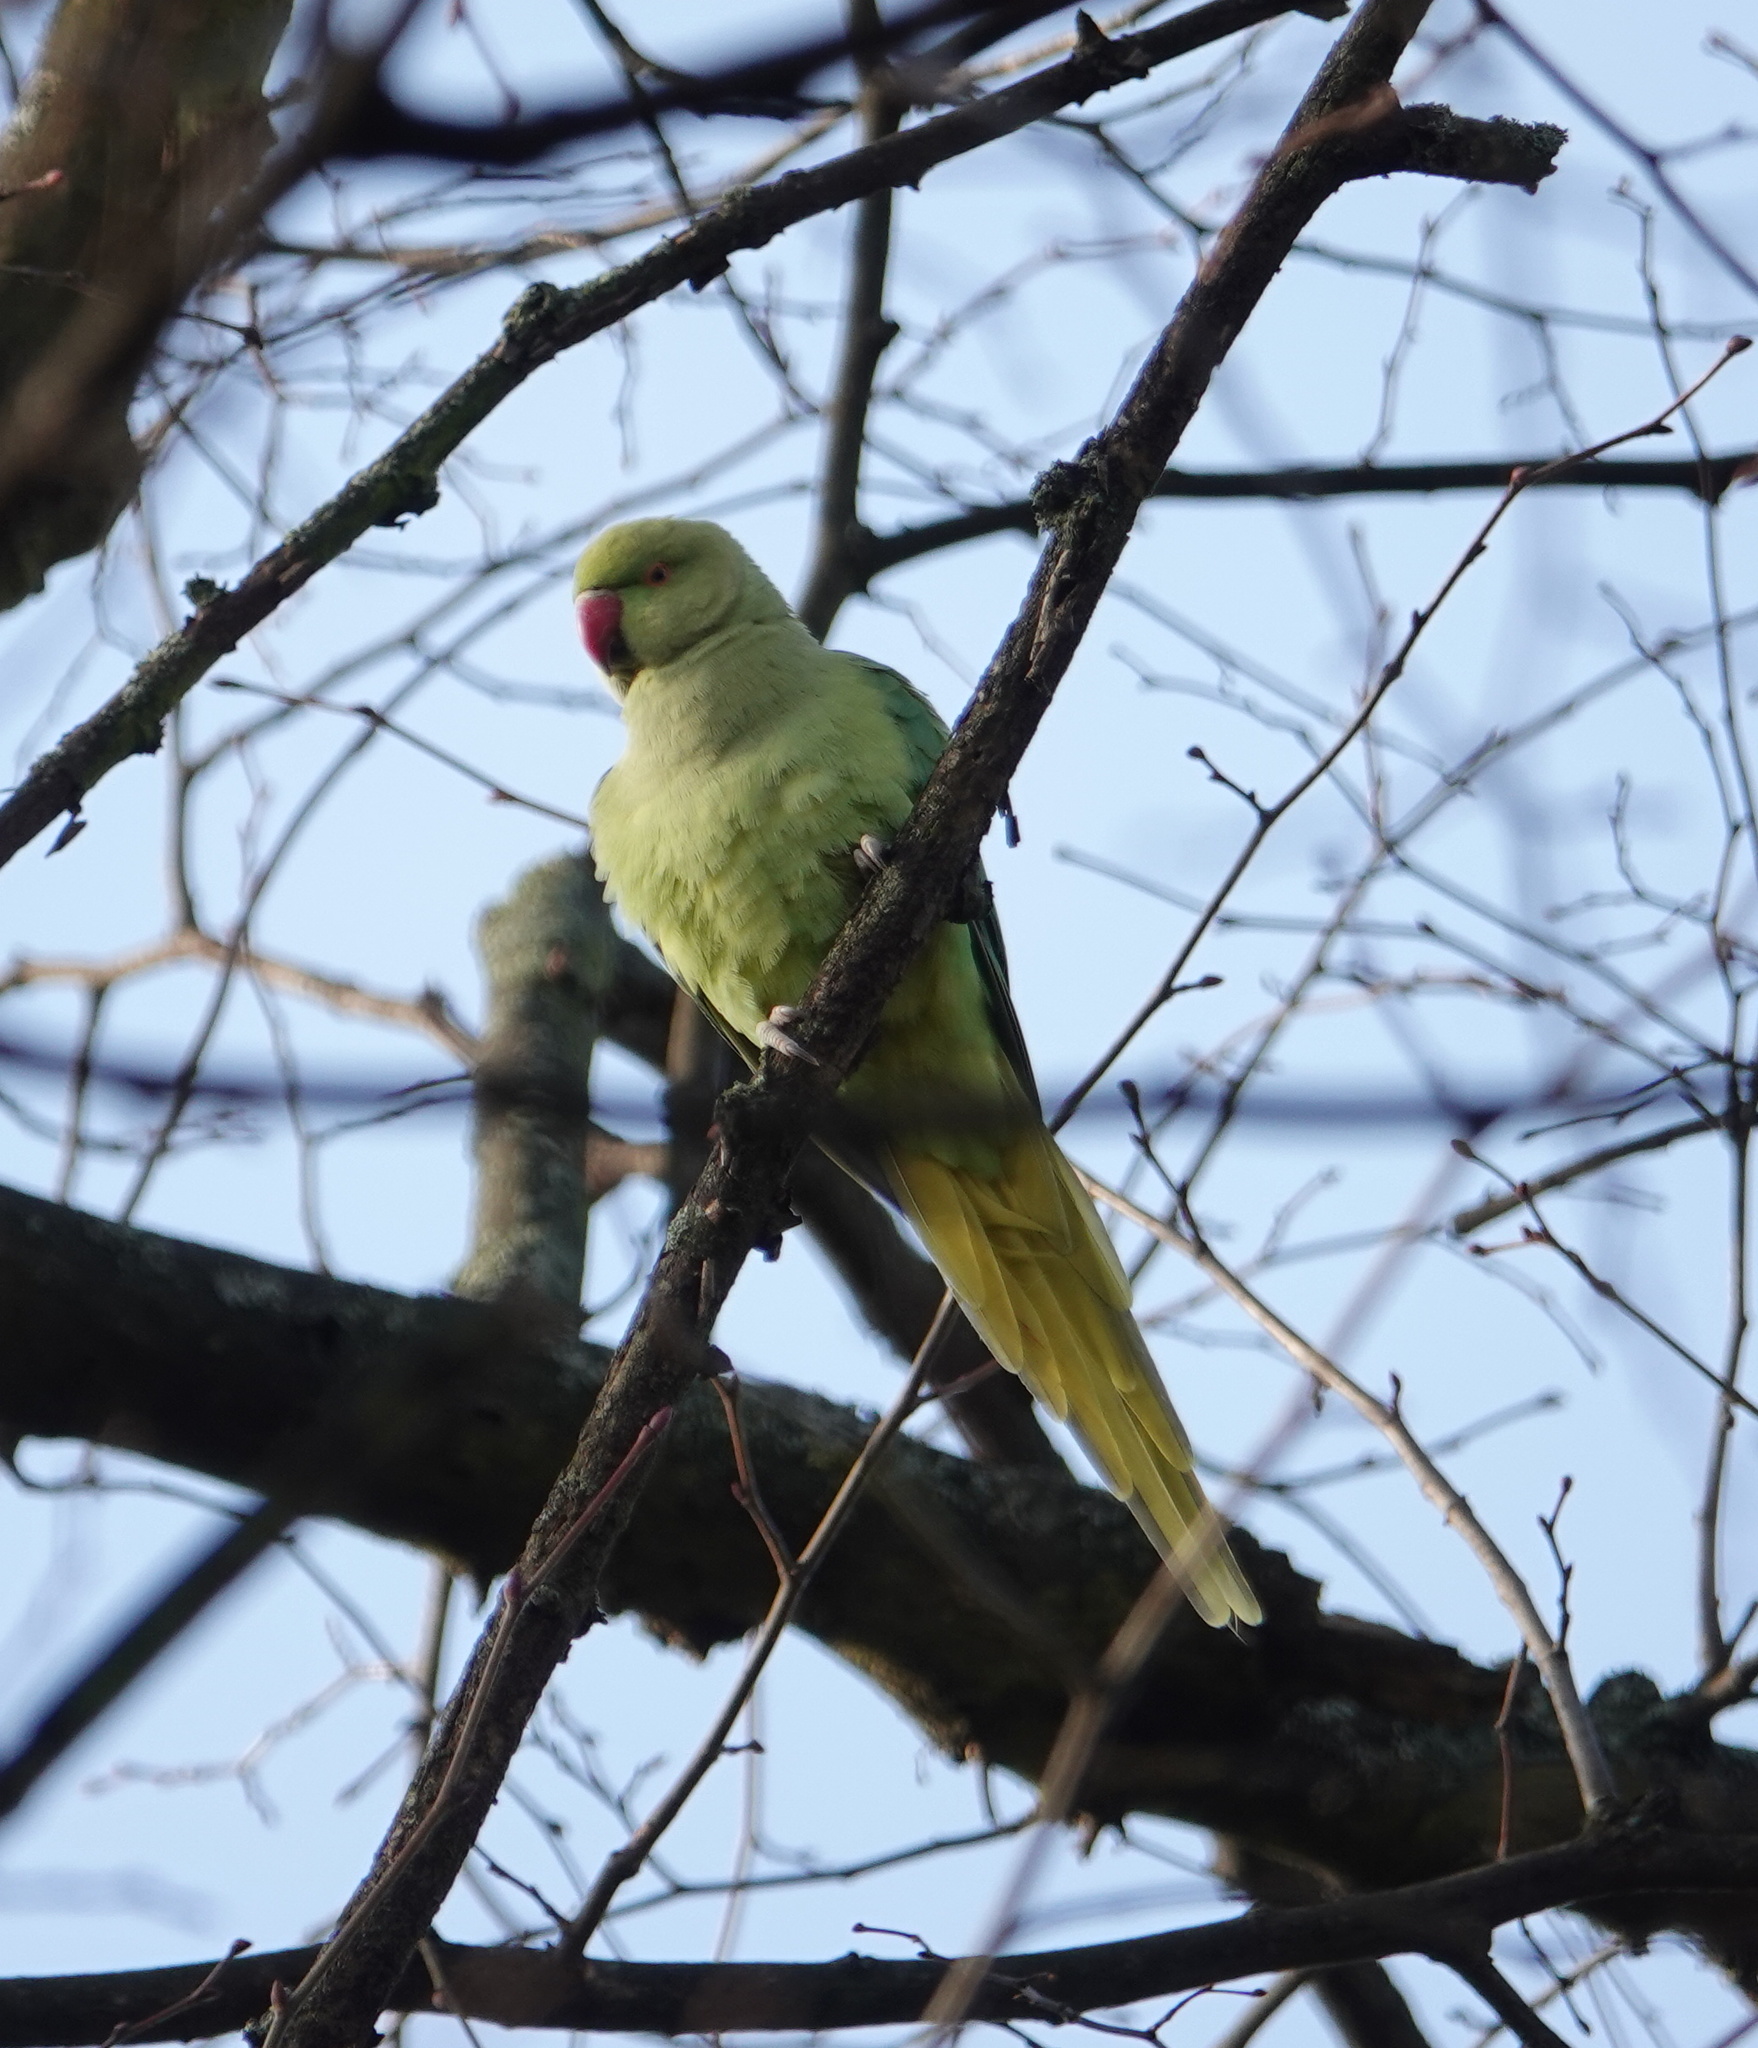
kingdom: Animalia
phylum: Chordata
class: Aves
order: Psittaciformes
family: Psittacidae
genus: Psittacula
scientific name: Psittacula krameri
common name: Rose-ringed parakeet
